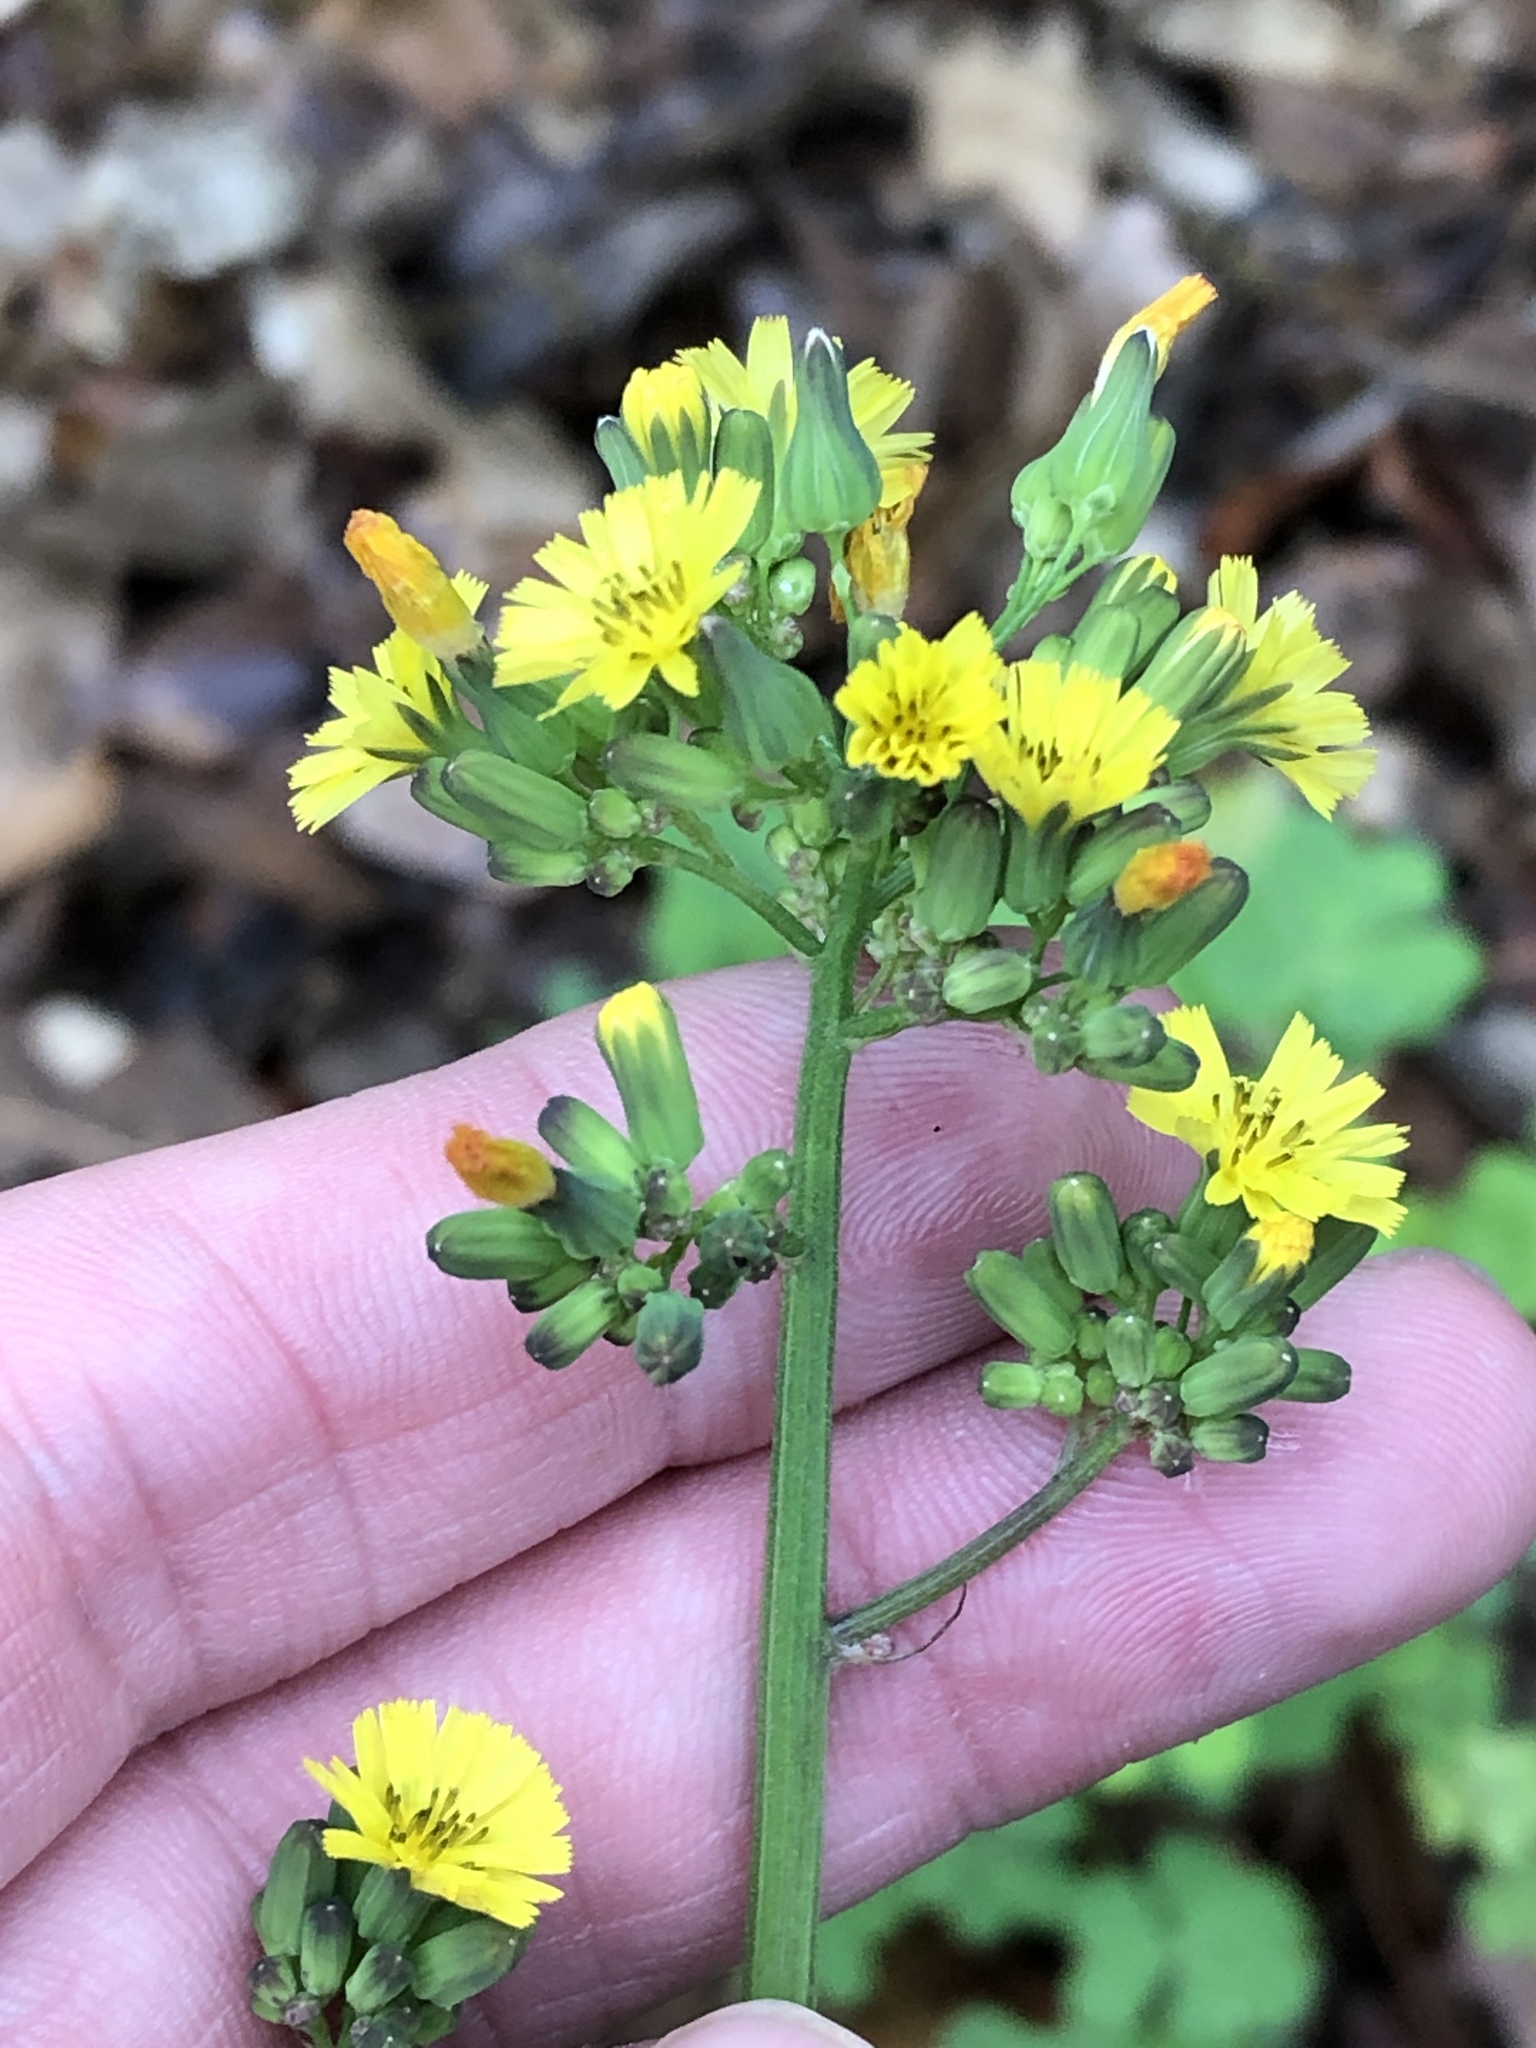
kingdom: Plantae
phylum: Tracheophyta
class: Magnoliopsida
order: Asterales
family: Asteraceae
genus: Youngia
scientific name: Youngia japonica
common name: Oriental false hawksbeard
